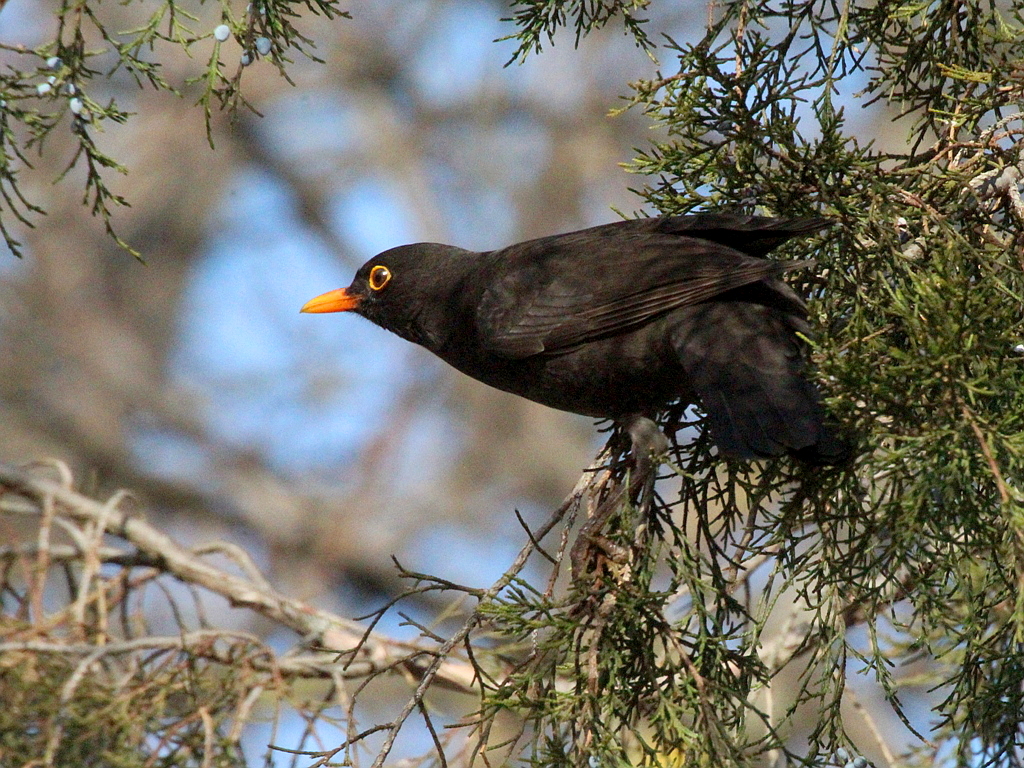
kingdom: Animalia
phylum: Chordata
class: Aves
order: Passeriformes
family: Turdidae
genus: Turdus
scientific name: Turdus merula
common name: Common blackbird
